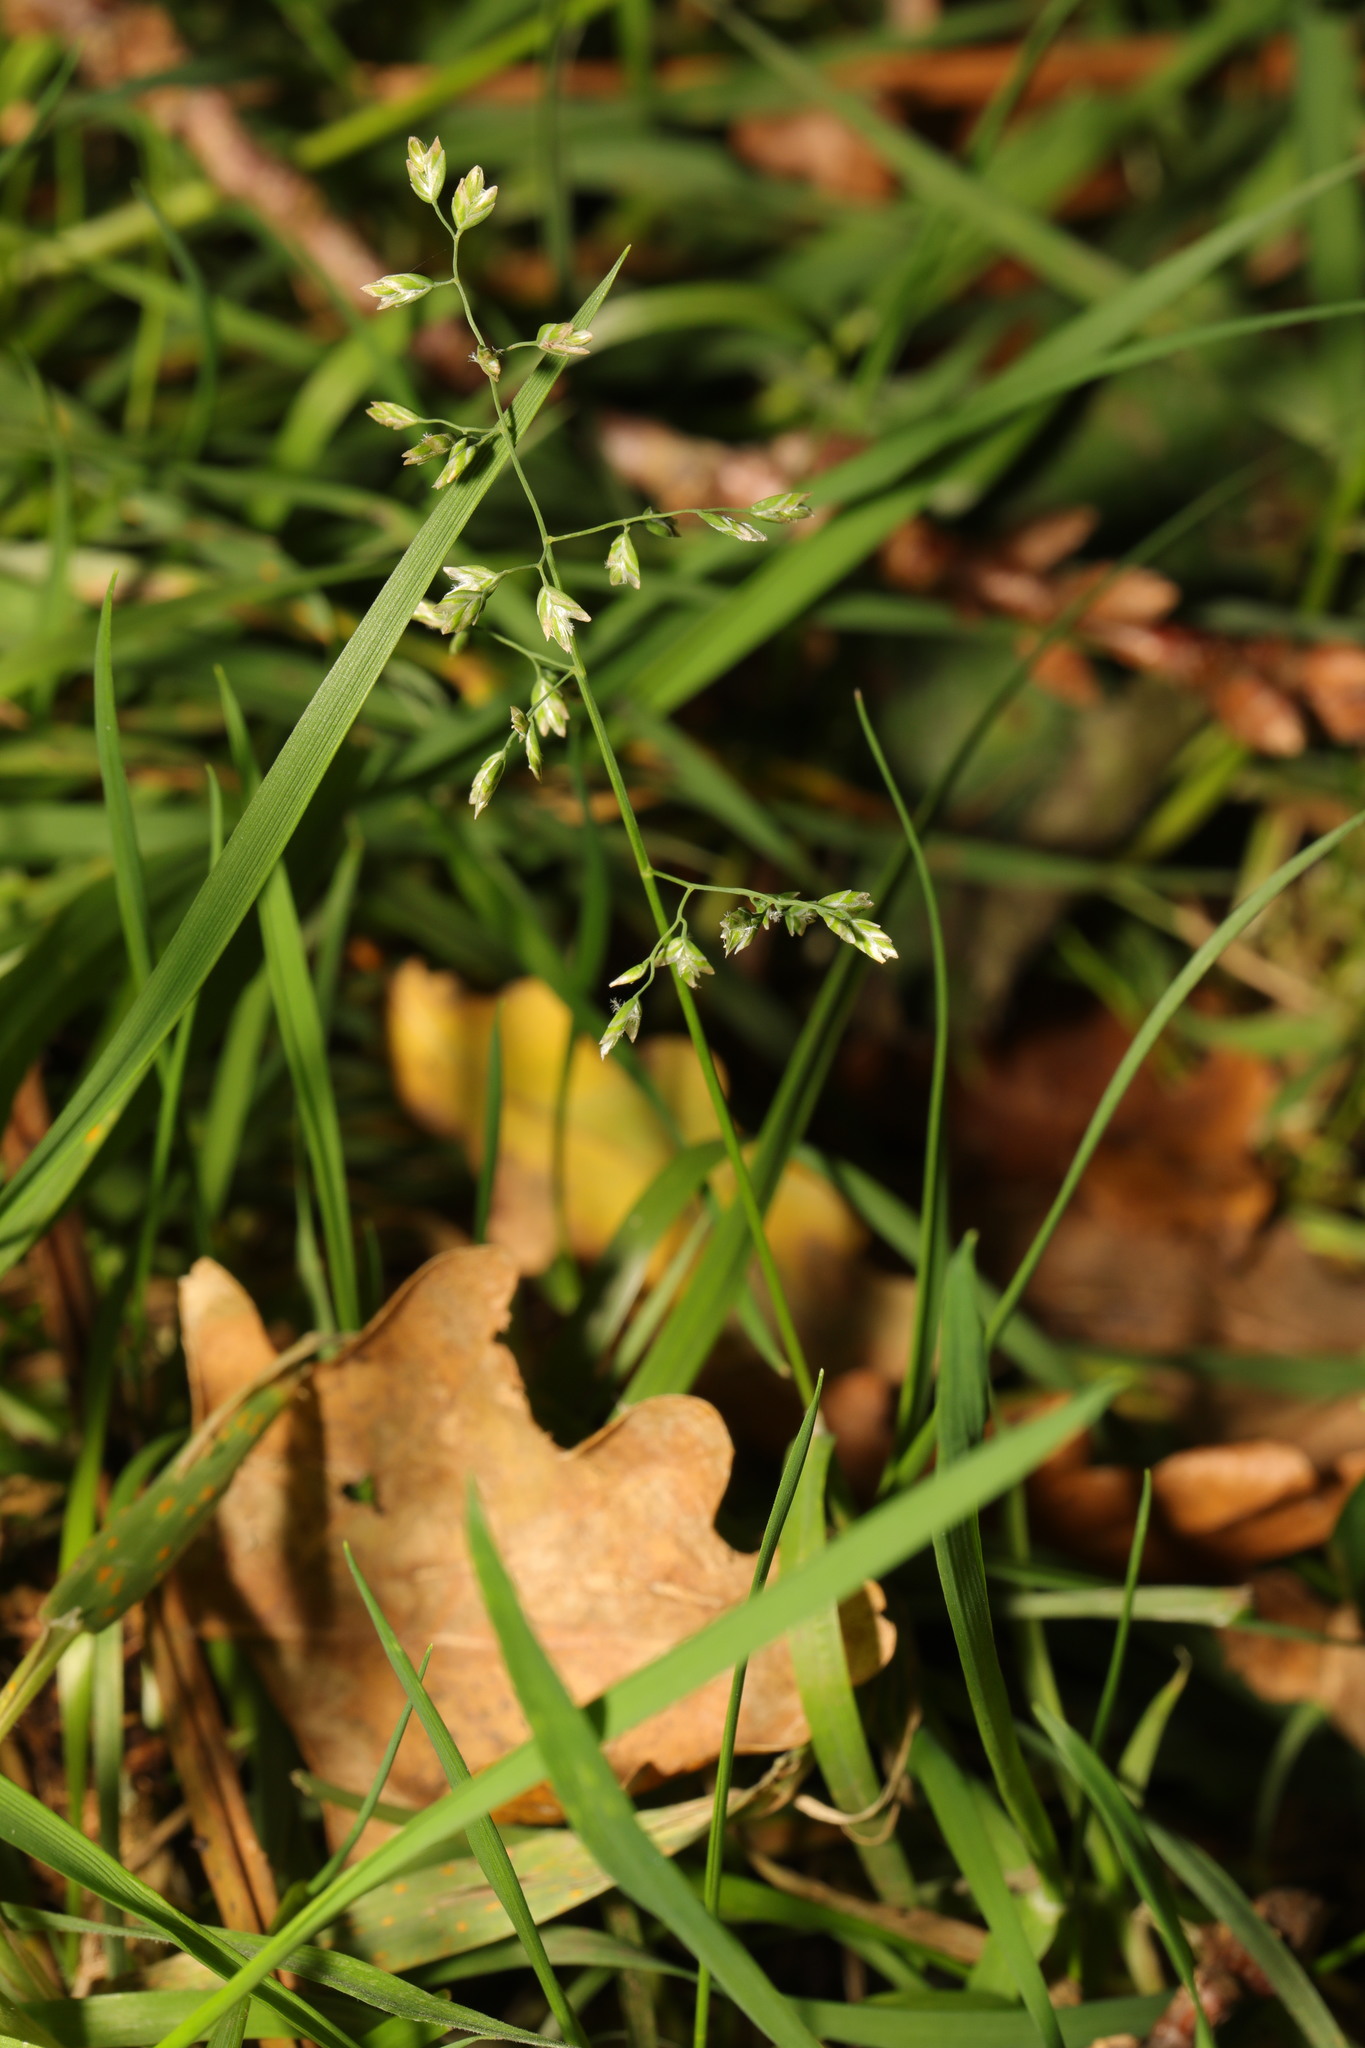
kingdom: Plantae
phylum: Tracheophyta
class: Liliopsida
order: Poales
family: Poaceae
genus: Poa
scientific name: Poa annua
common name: Annual bluegrass
